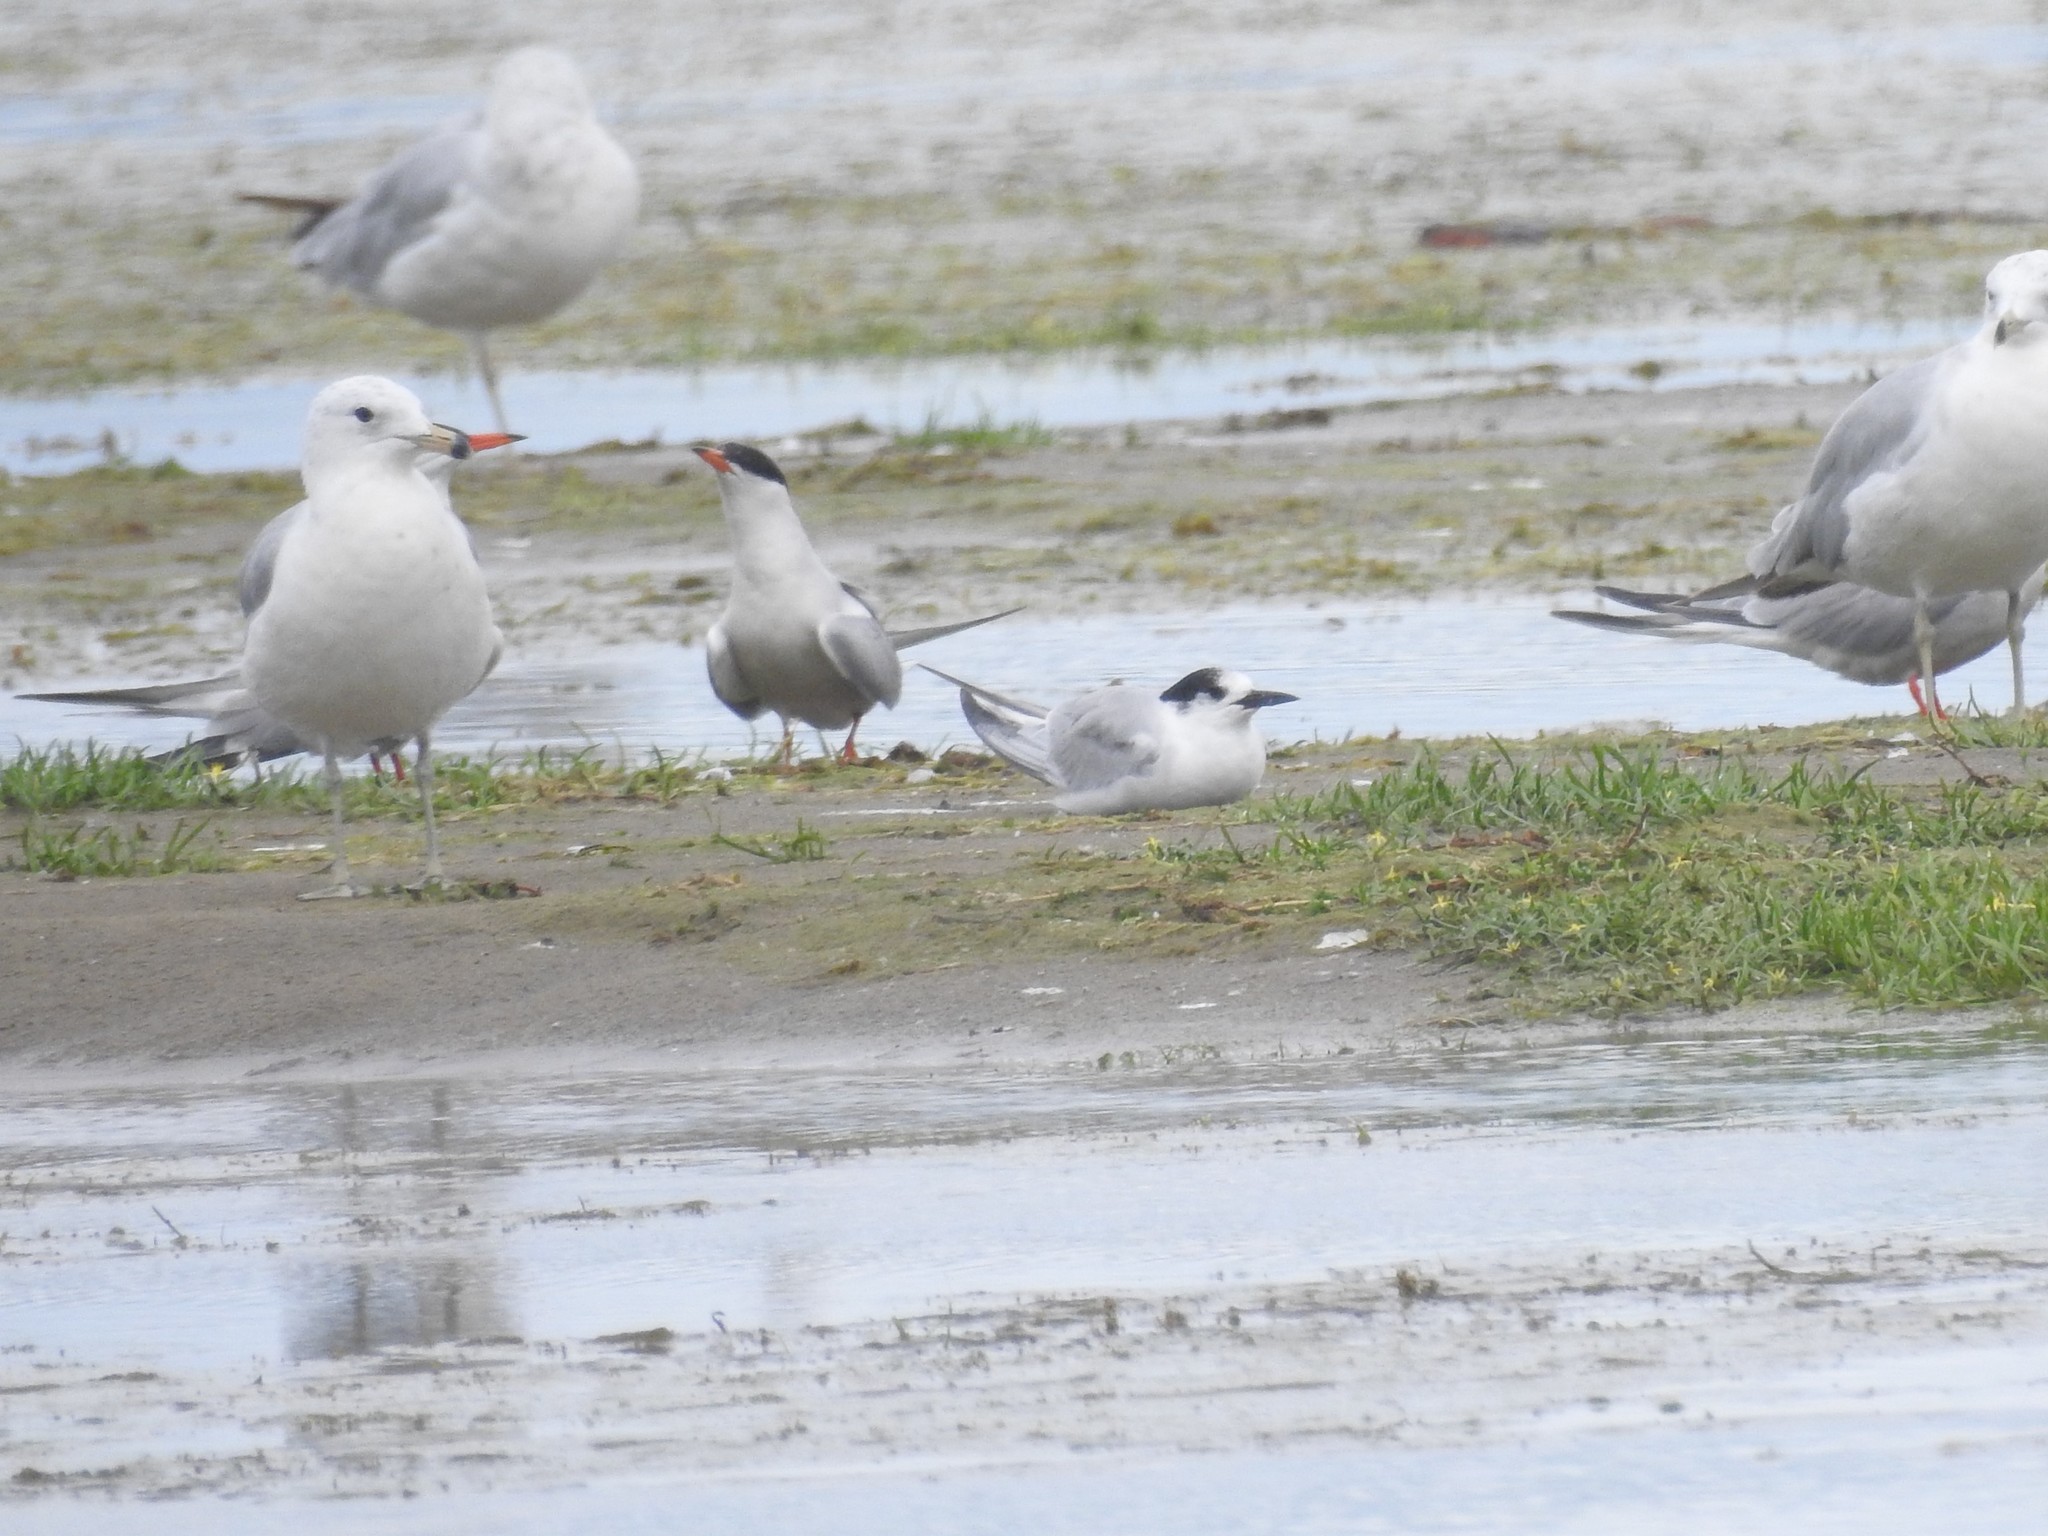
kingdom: Animalia
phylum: Chordata
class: Aves
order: Charadriiformes
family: Laridae
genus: Sterna
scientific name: Sterna hirundo
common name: Common tern
